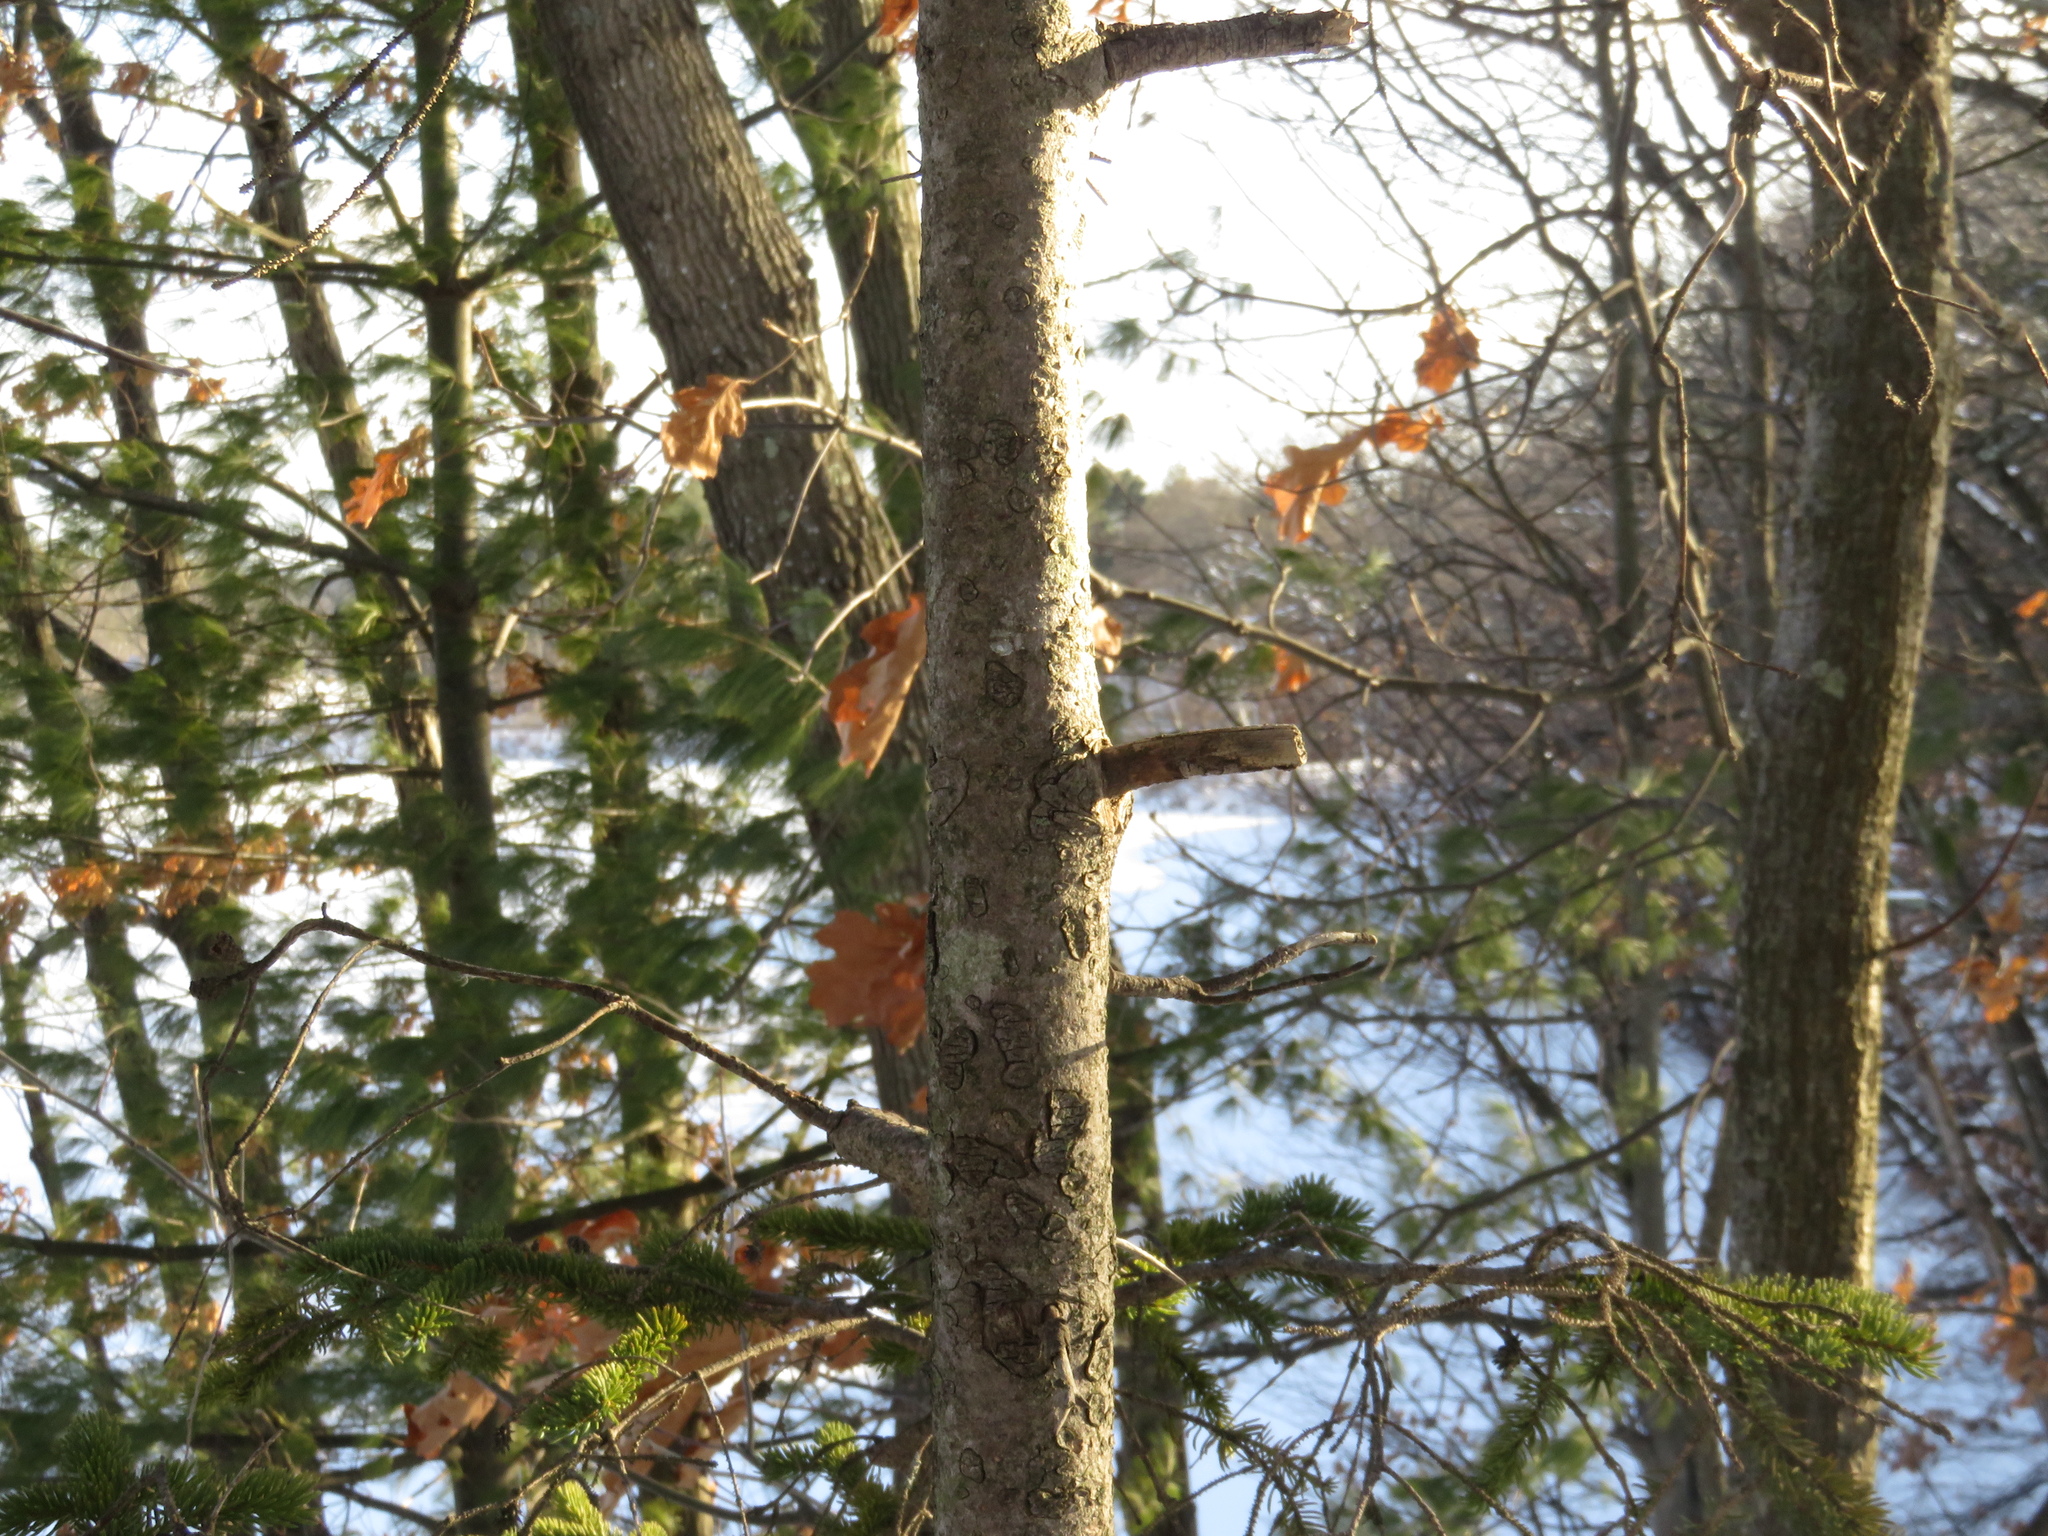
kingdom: Plantae
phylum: Tracheophyta
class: Pinopsida
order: Pinales
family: Pinaceae
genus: Picea
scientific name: Picea glauca
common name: White spruce
